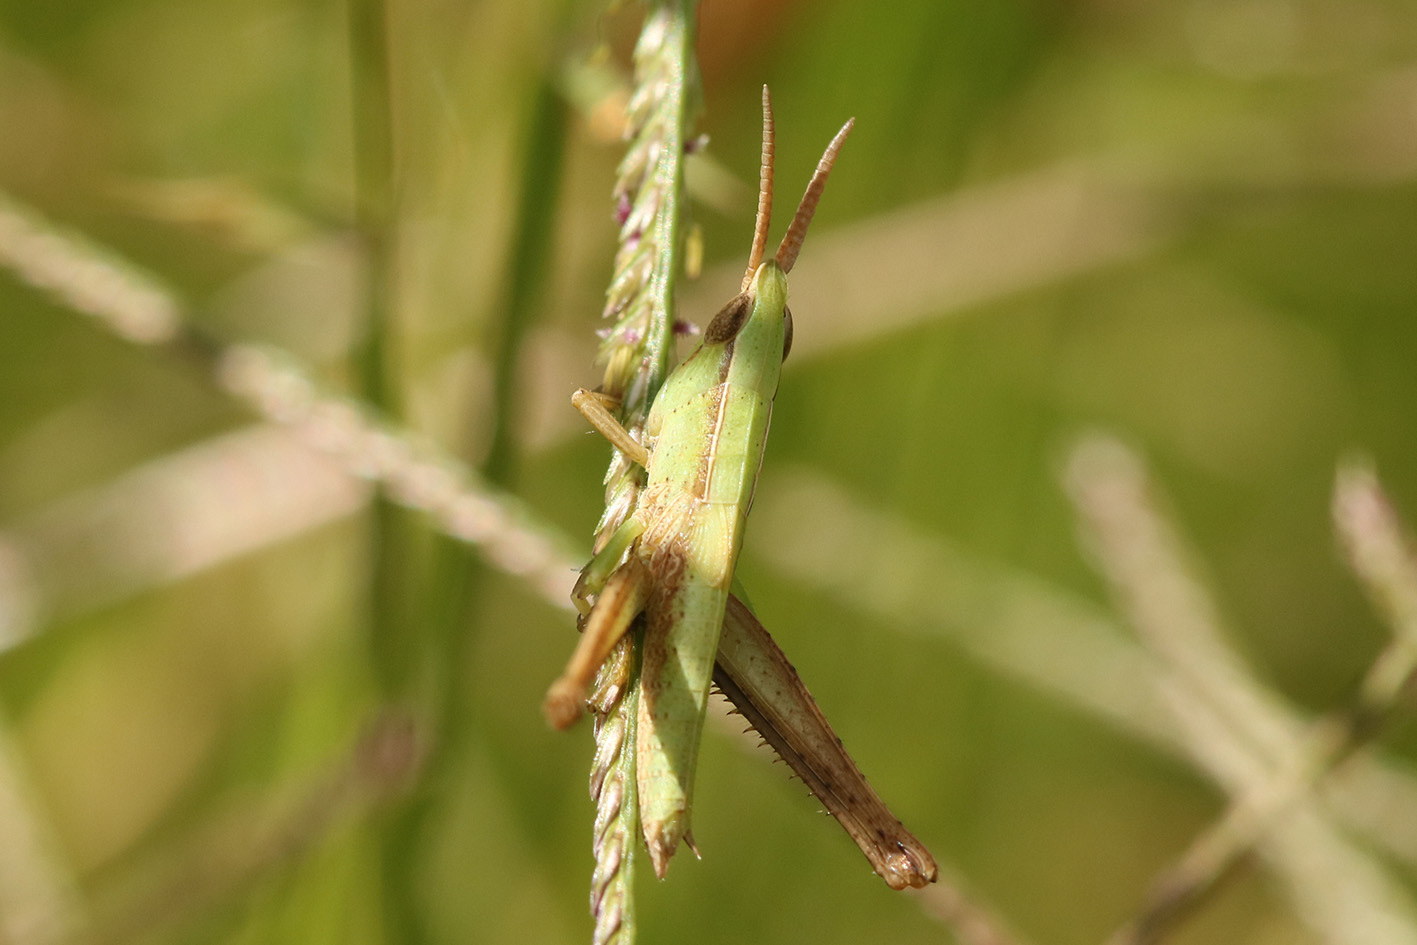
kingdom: Animalia
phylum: Arthropoda
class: Insecta
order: Orthoptera
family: Acrididae
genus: Metaleptea
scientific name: Metaleptea adspersa
